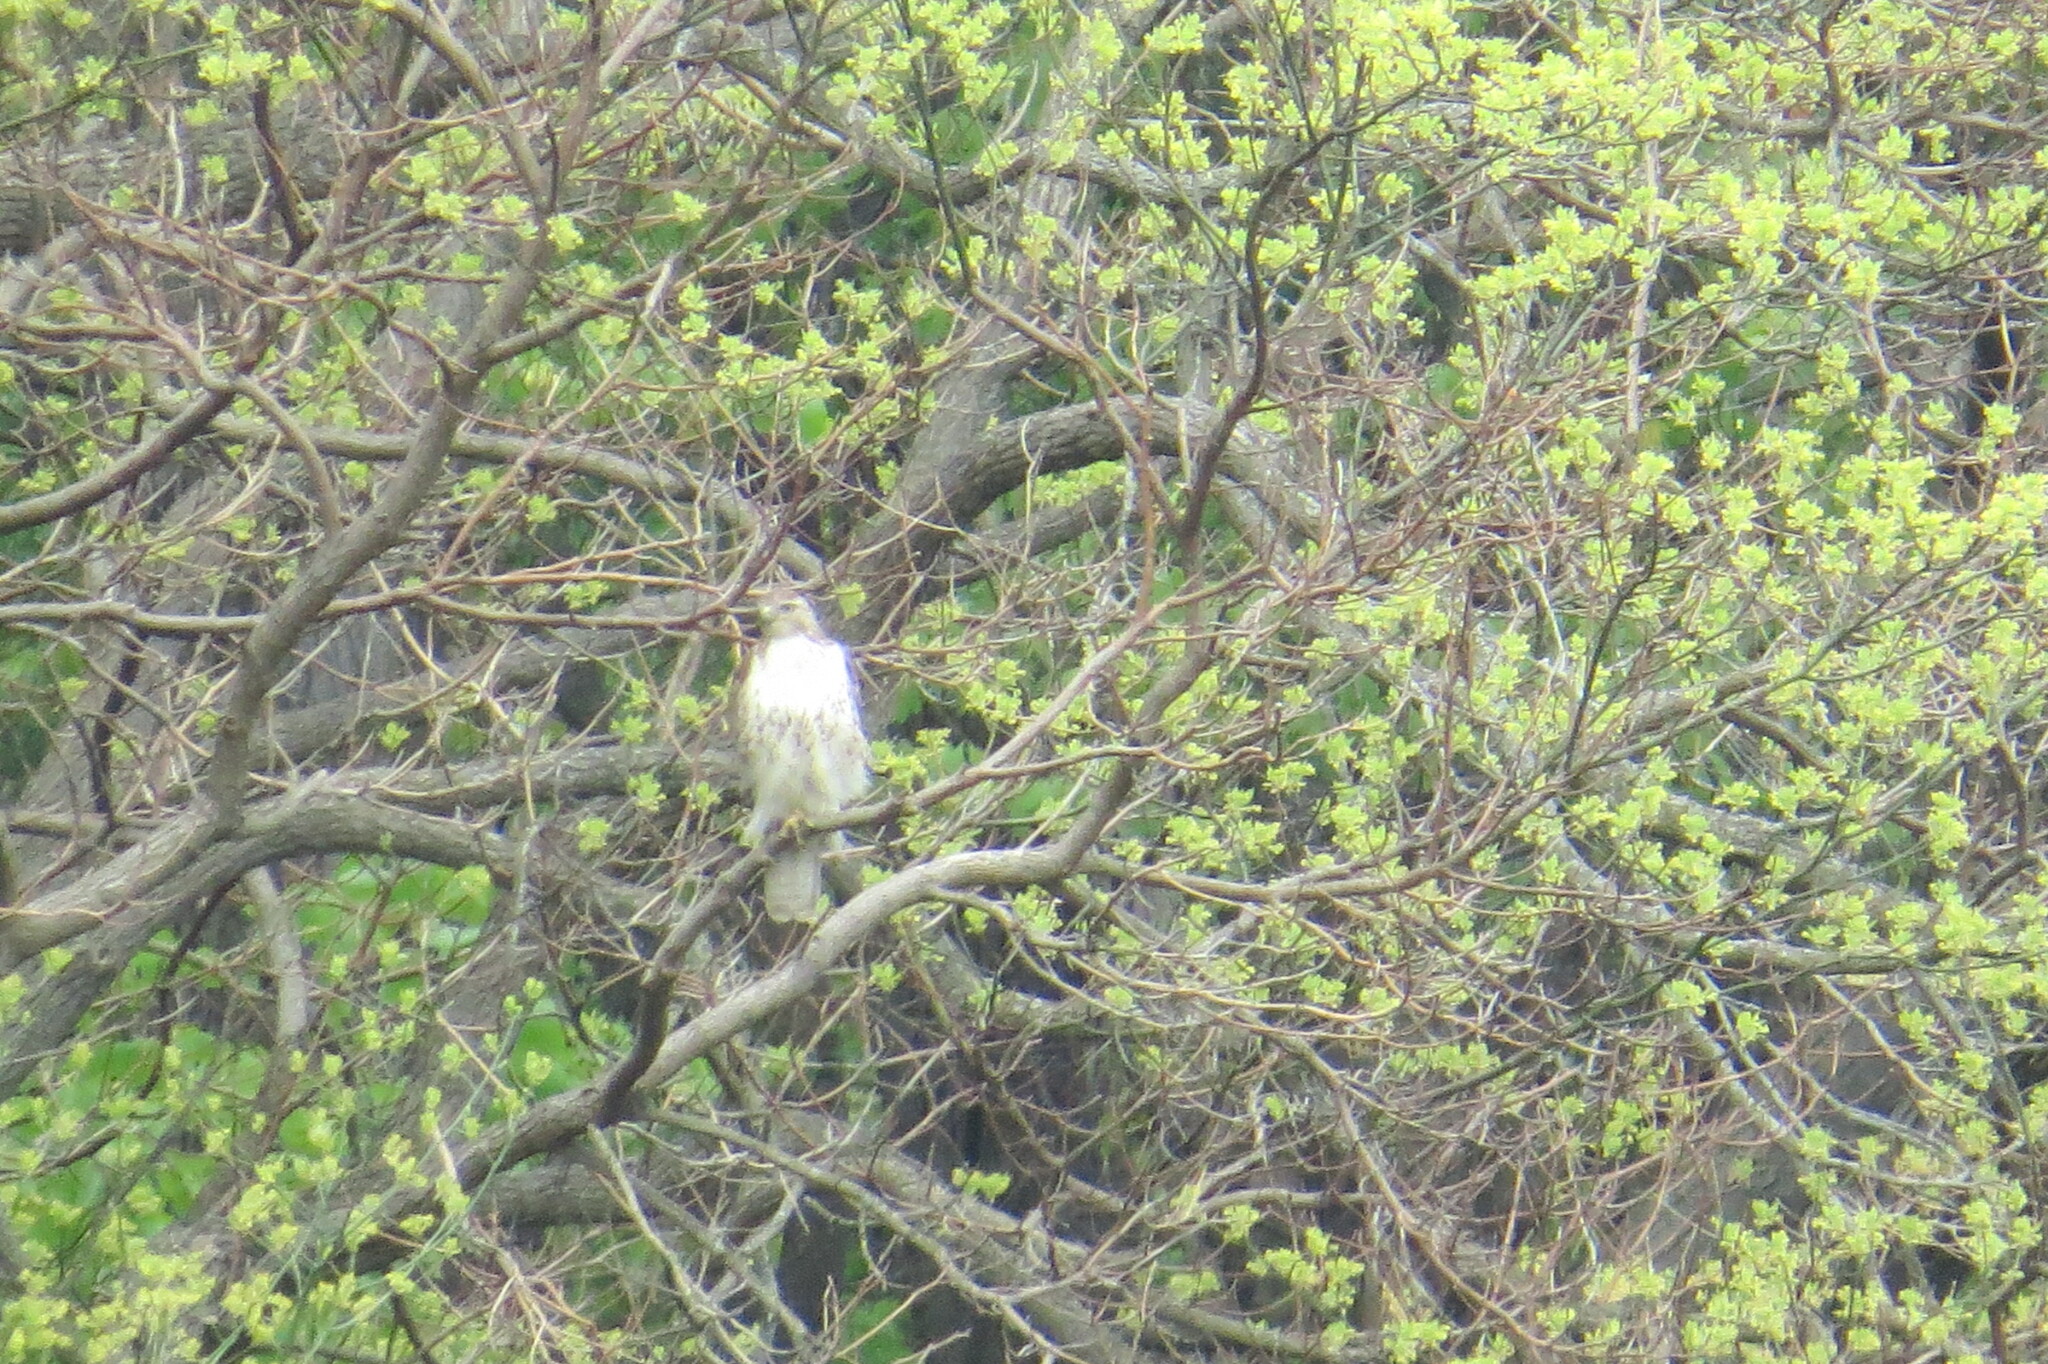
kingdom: Animalia
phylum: Chordata
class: Aves
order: Accipitriformes
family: Accipitridae
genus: Buteo
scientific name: Buteo jamaicensis
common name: Red-tailed hawk
